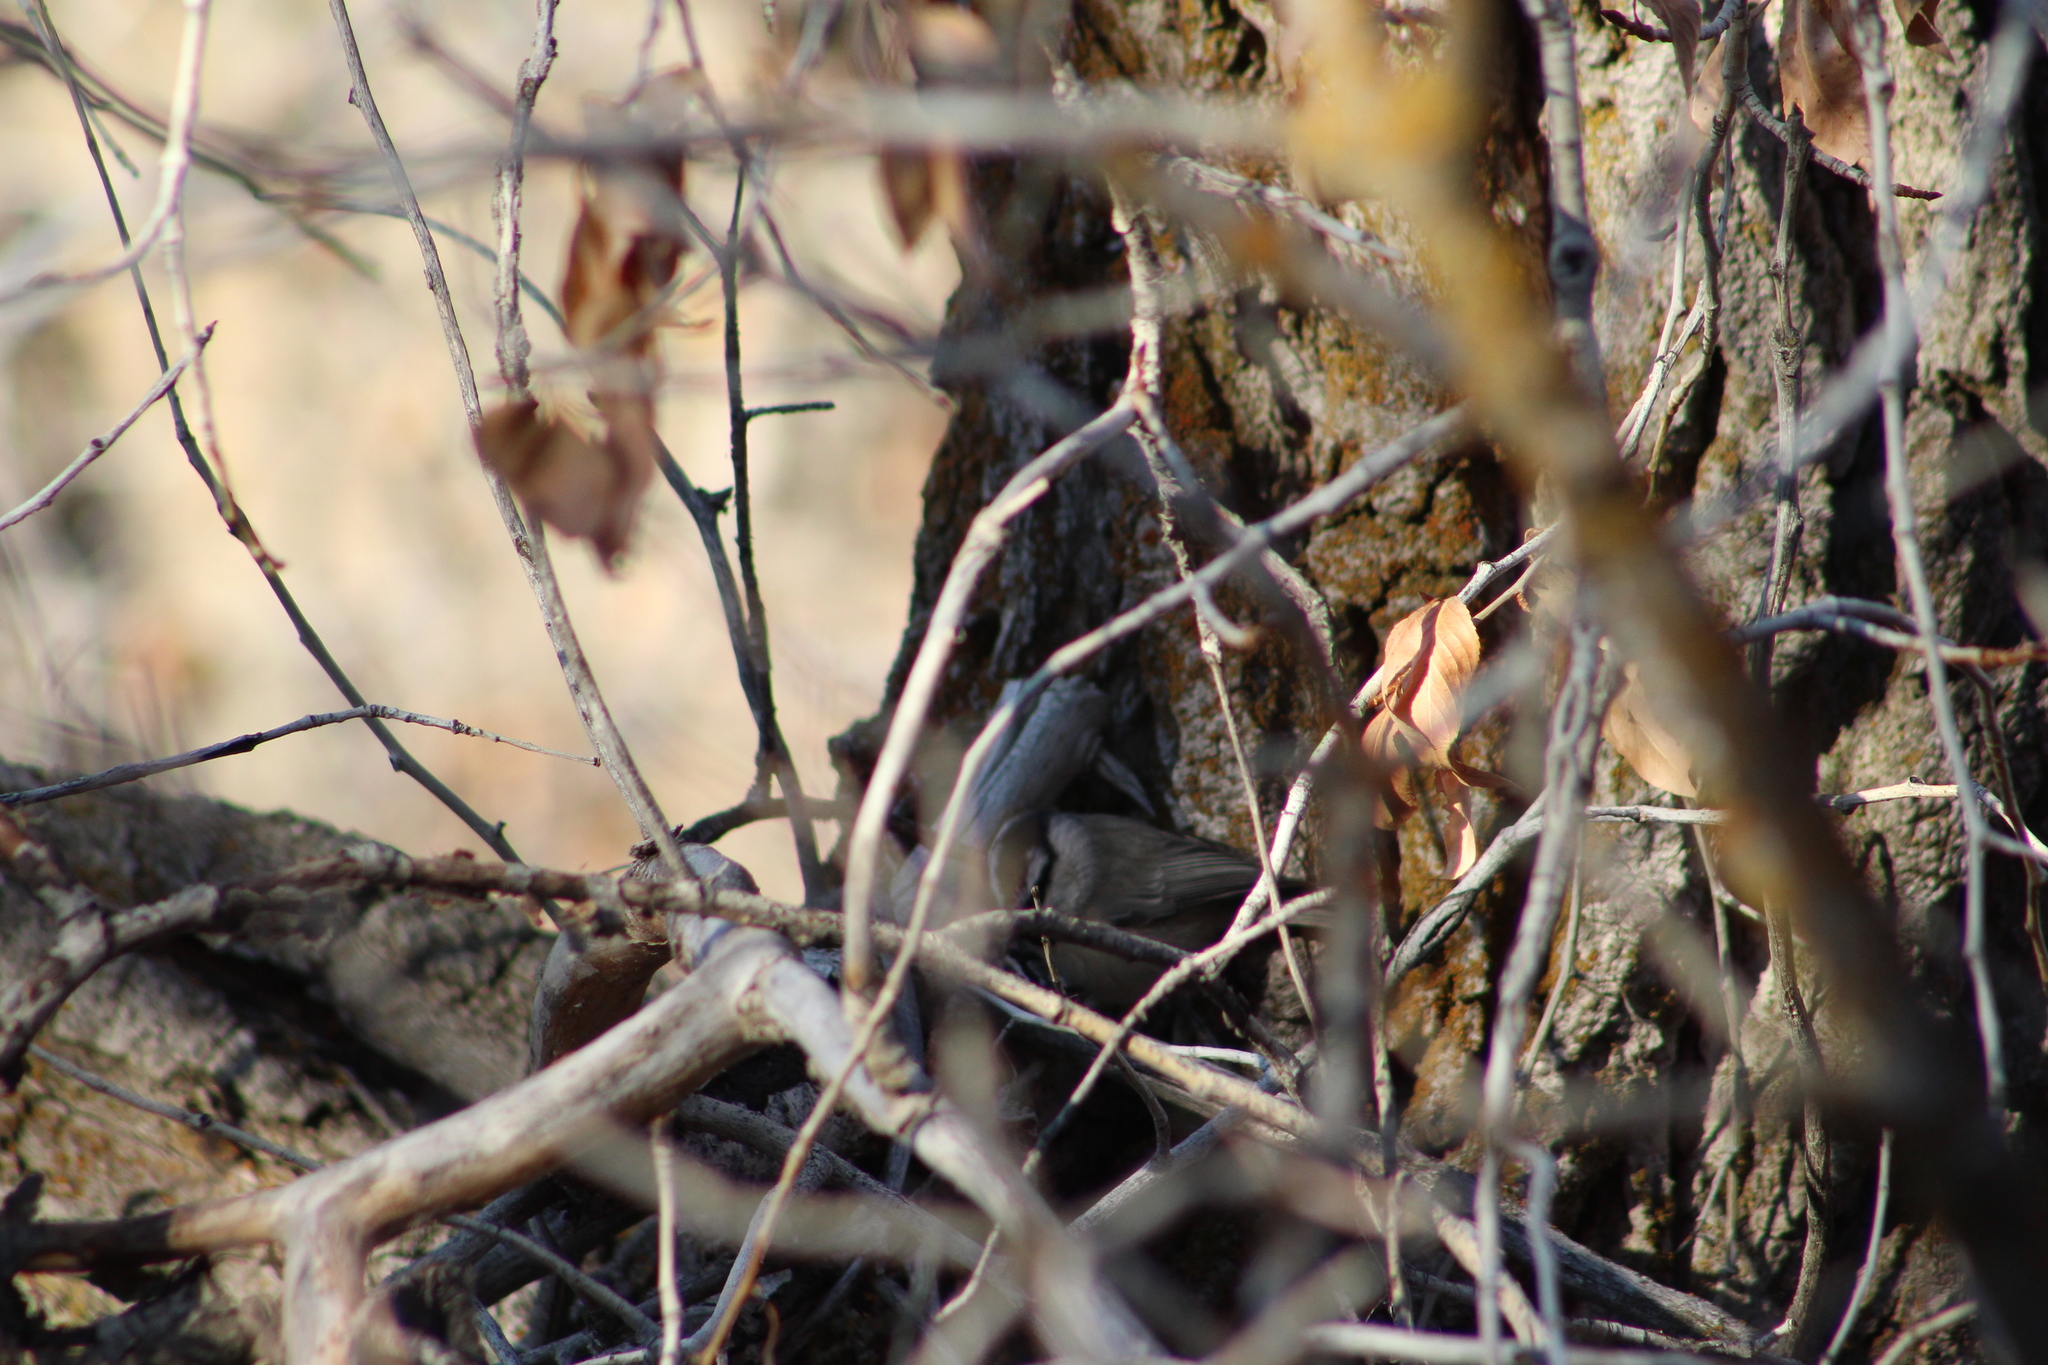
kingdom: Animalia
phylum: Chordata
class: Aves
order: Passeriformes
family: Paridae
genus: Poecile
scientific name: Poecile gambeli
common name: Mountain chickadee
